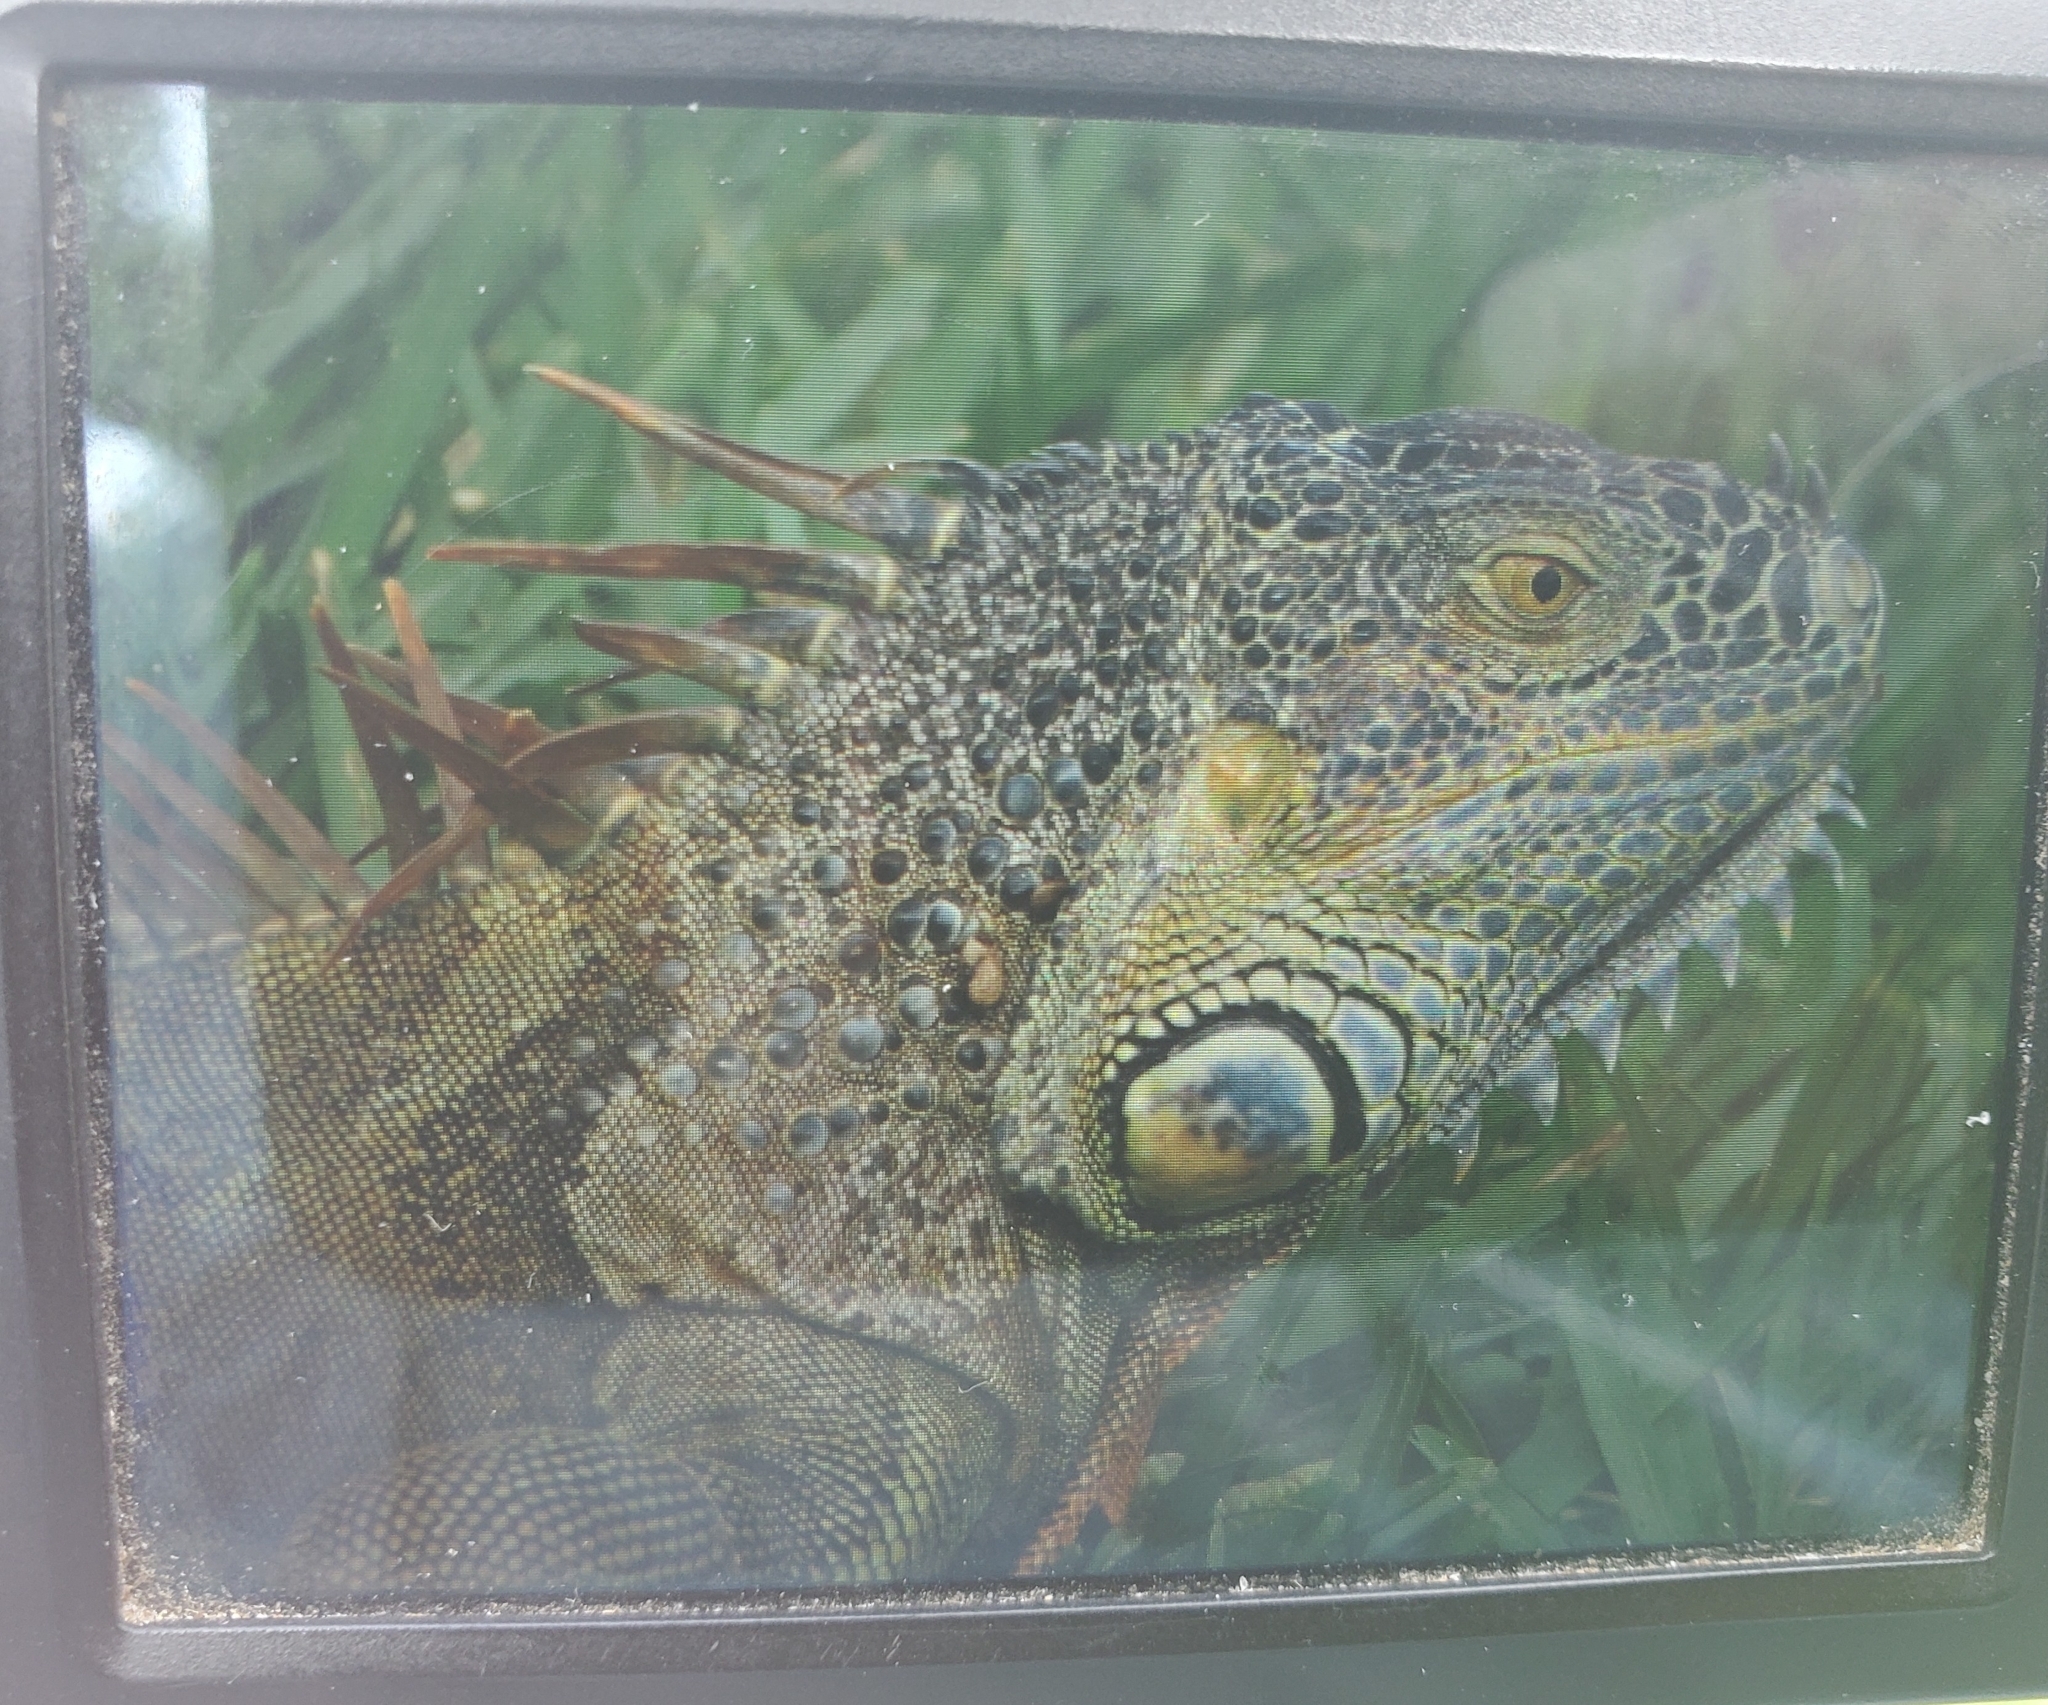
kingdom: Animalia
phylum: Chordata
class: Squamata
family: Iguanidae
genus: Iguana
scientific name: Iguana iguana
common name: Green iguana
